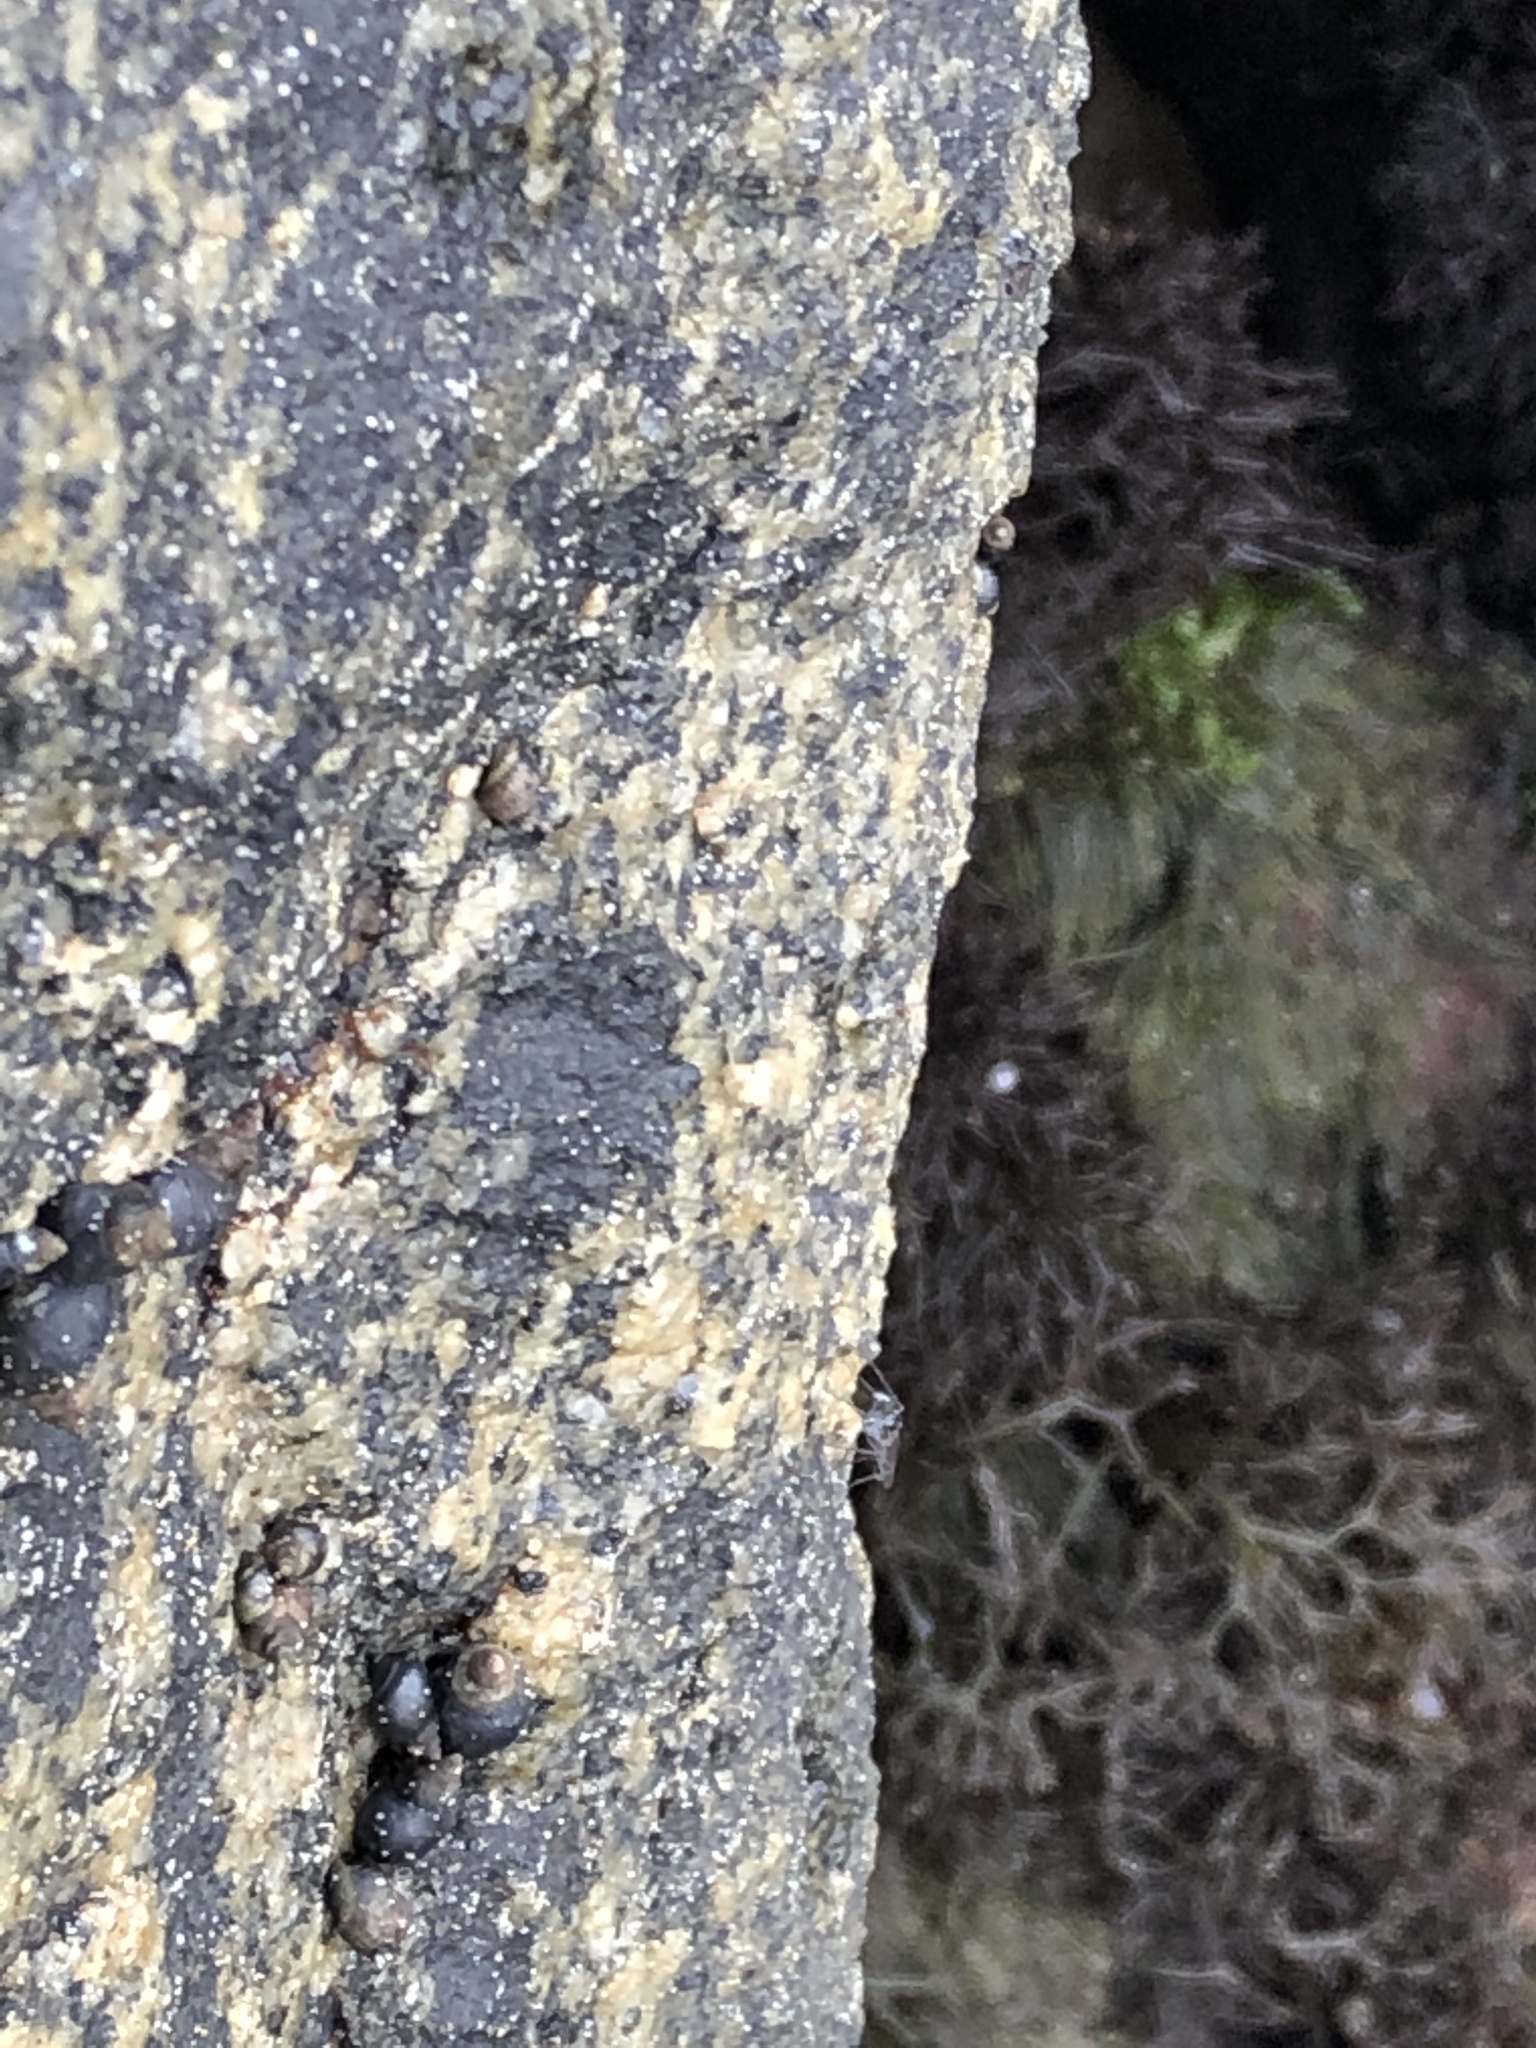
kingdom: Animalia
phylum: Mollusca
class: Gastropoda
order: Littorinimorpha
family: Littorinidae
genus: Echinolittorina
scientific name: Echinolittorina peruviana
